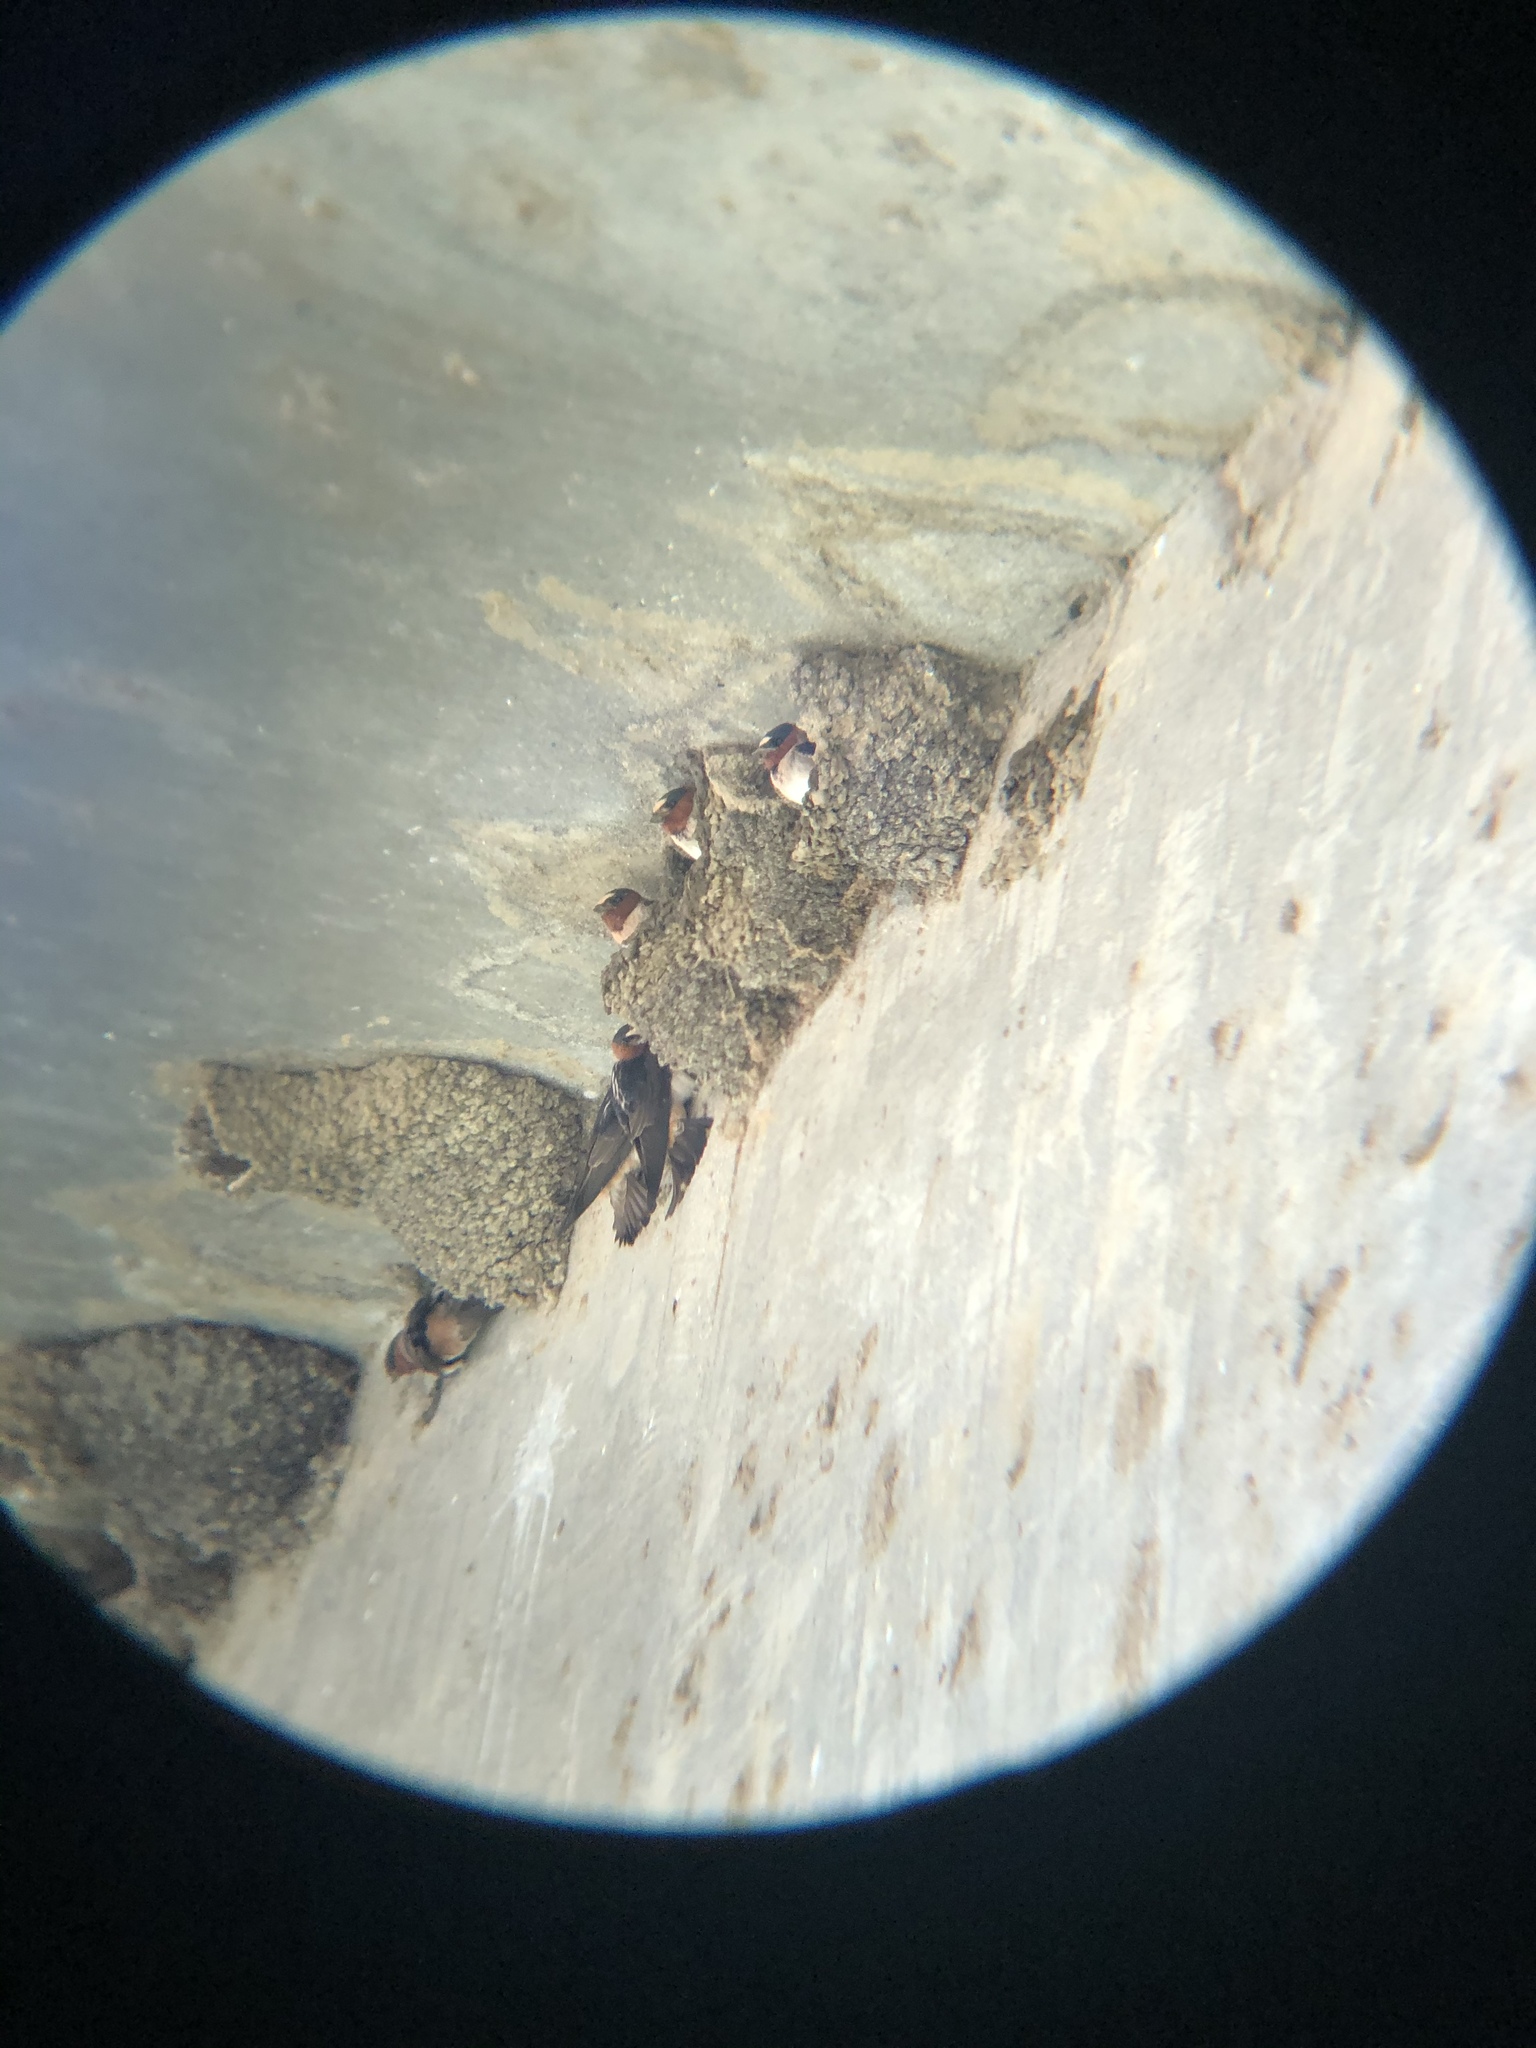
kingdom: Animalia
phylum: Chordata
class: Aves
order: Passeriformes
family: Hirundinidae
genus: Petrochelidon
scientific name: Petrochelidon pyrrhonota
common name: American cliff swallow
